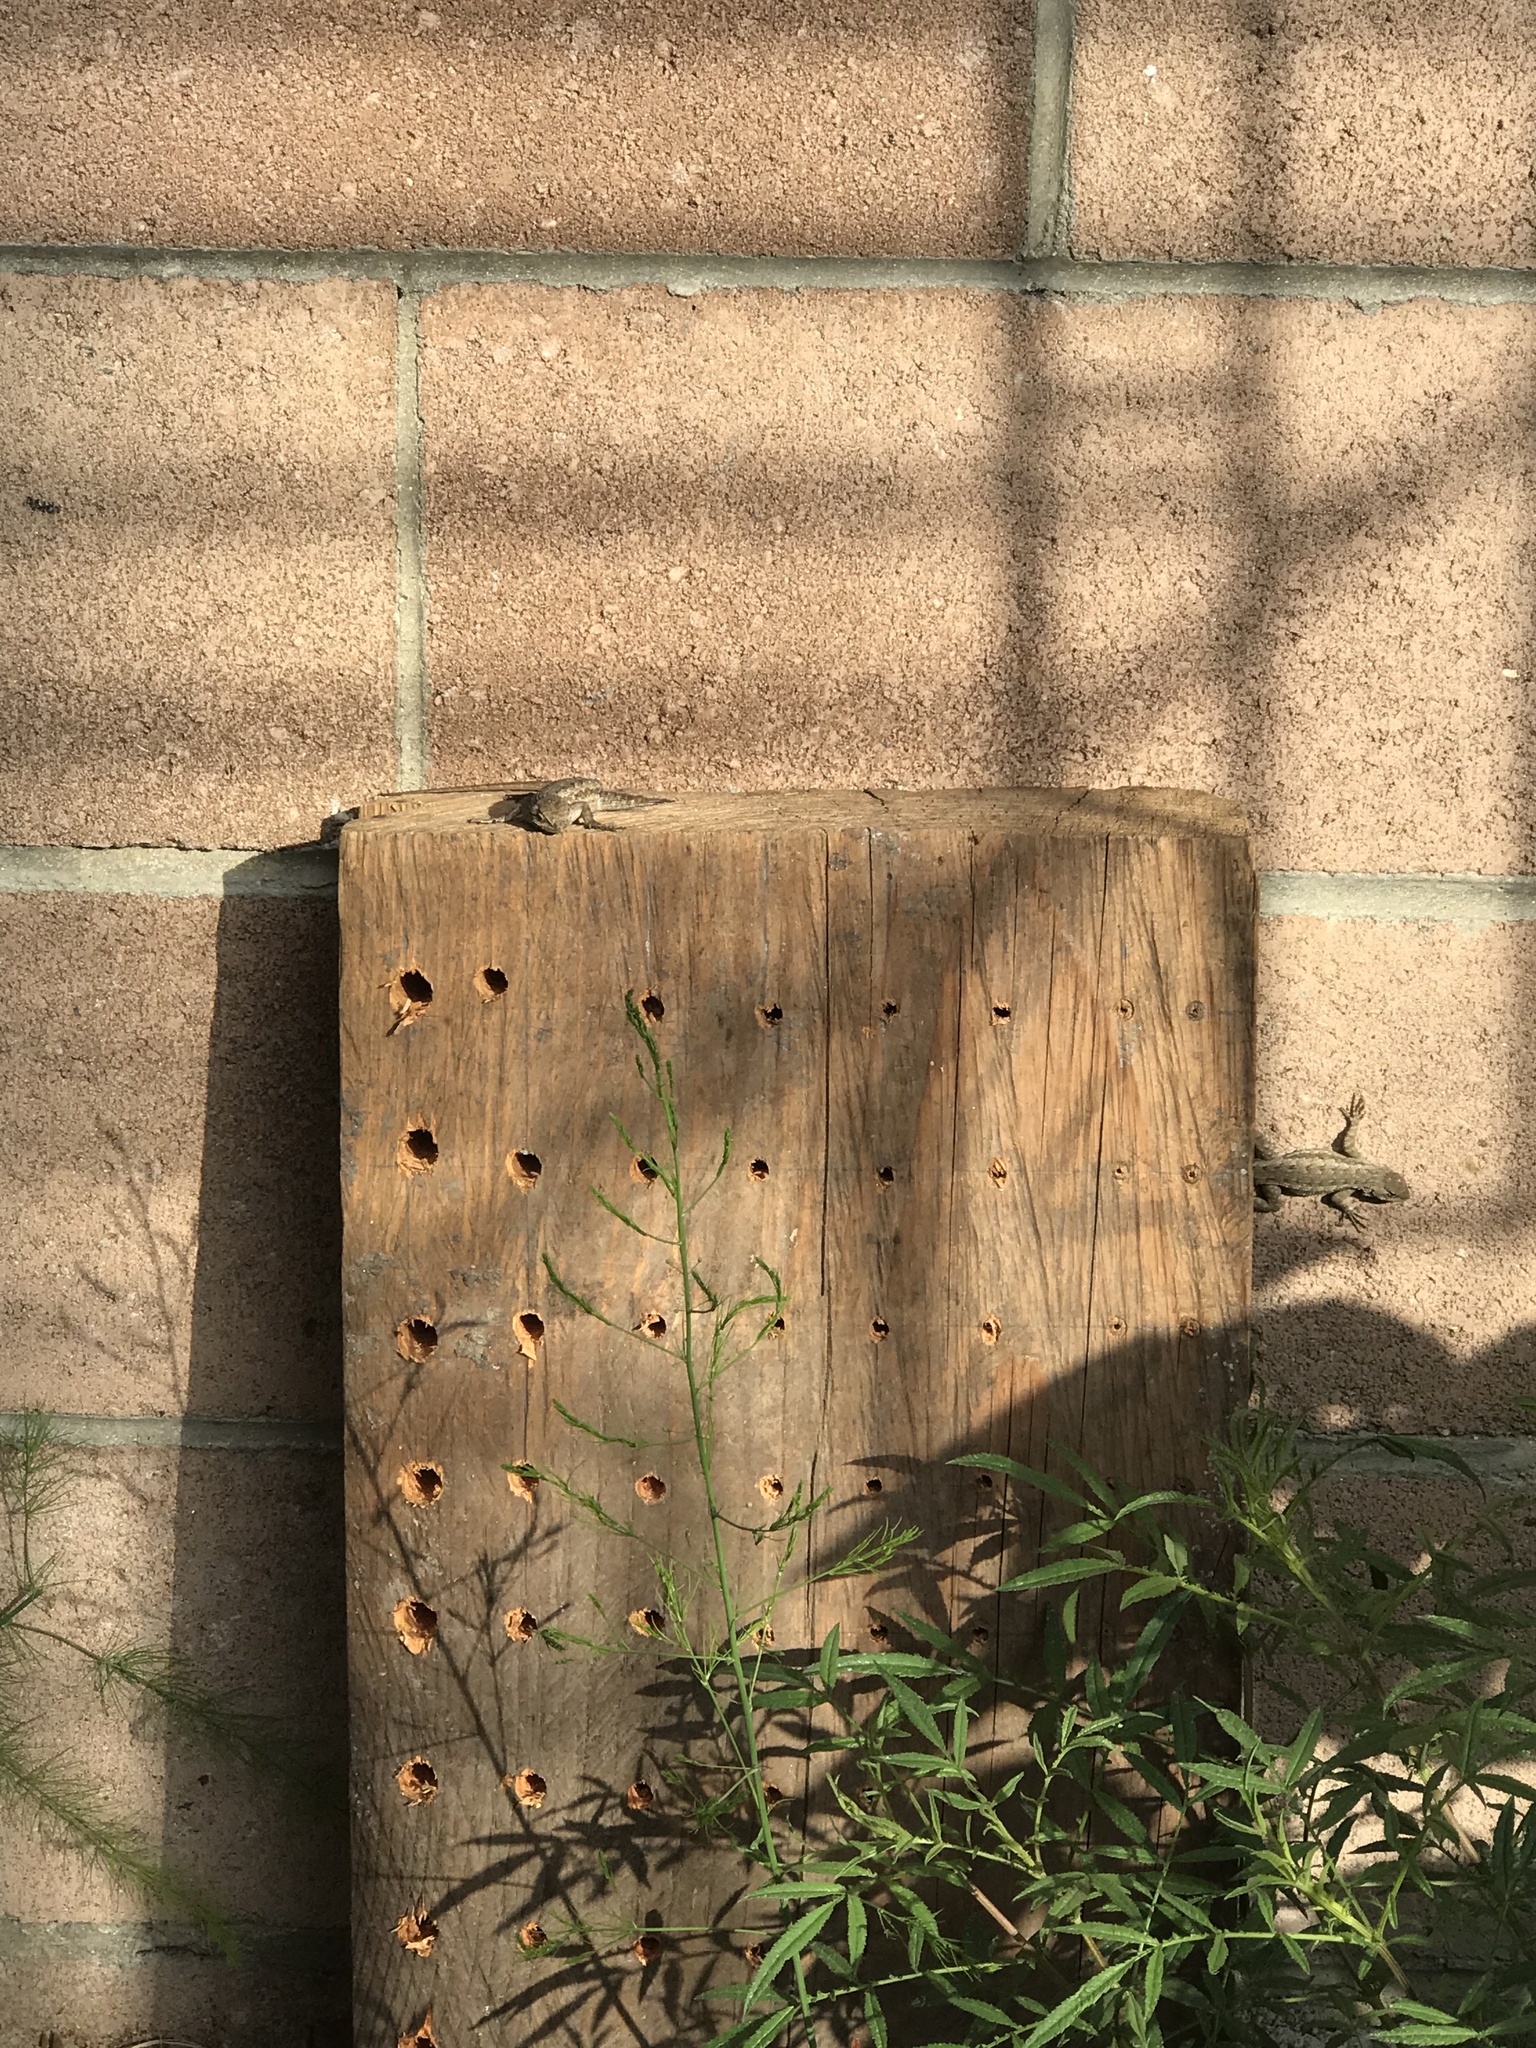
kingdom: Animalia
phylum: Chordata
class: Squamata
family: Phrynosomatidae
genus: Sceloporus
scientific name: Sceloporus occidentalis
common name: Western fence lizard
